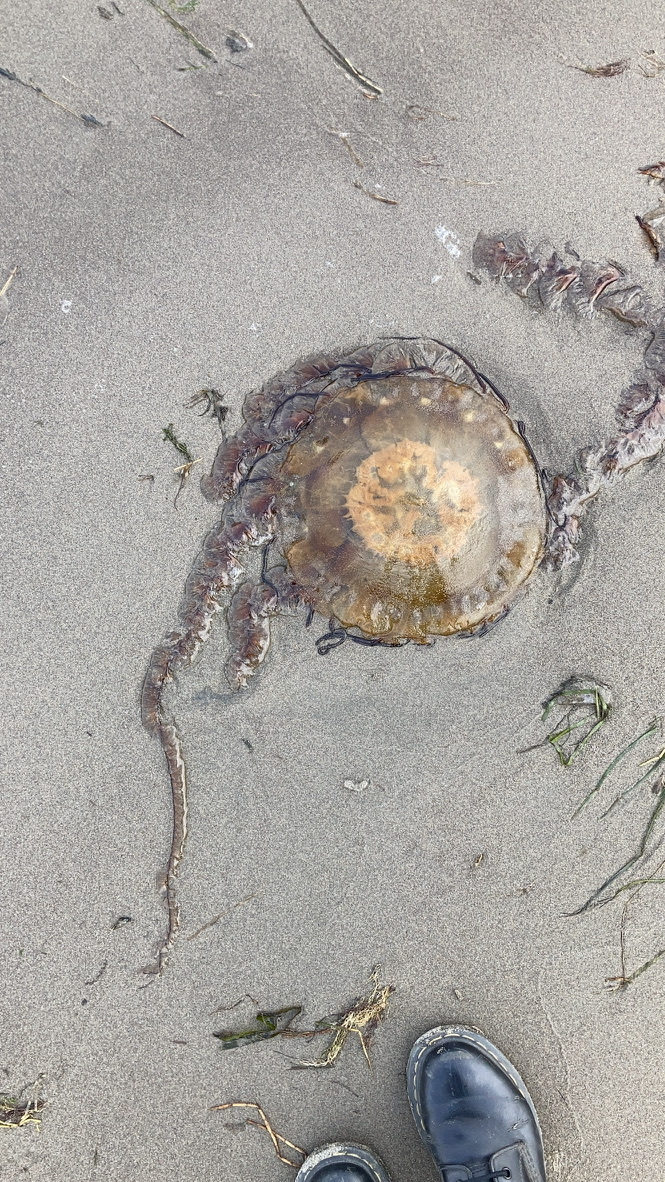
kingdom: Animalia
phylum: Cnidaria
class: Scyphozoa
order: Semaeostomeae
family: Pelagiidae
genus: Chrysaora
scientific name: Chrysaora fuscescens
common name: Sea nettle
